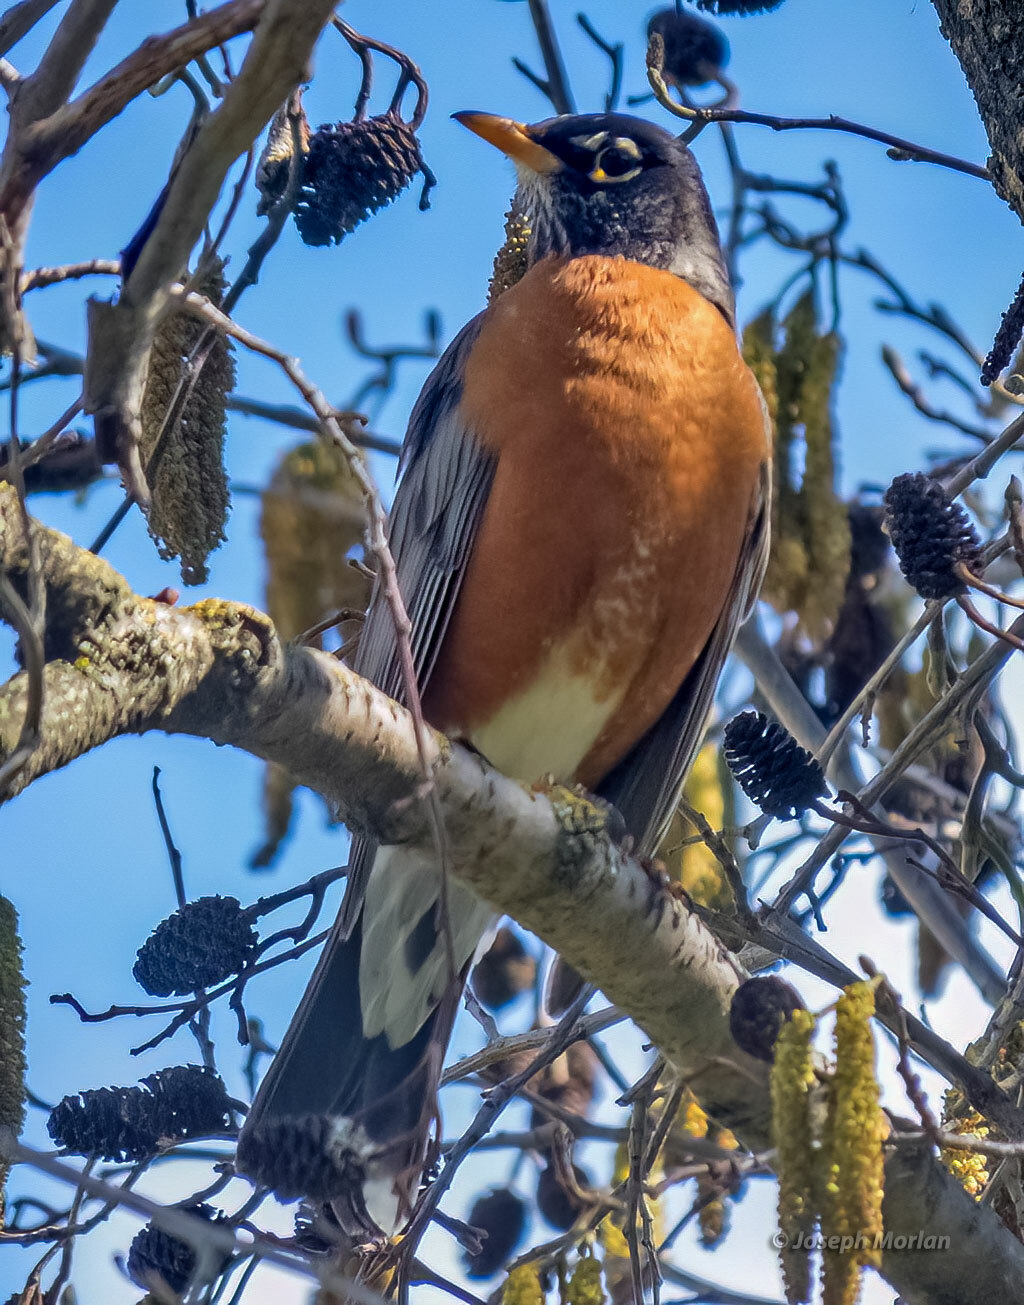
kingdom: Animalia
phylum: Chordata
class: Aves
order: Passeriformes
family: Turdidae
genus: Turdus
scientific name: Turdus migratorius
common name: American robin
